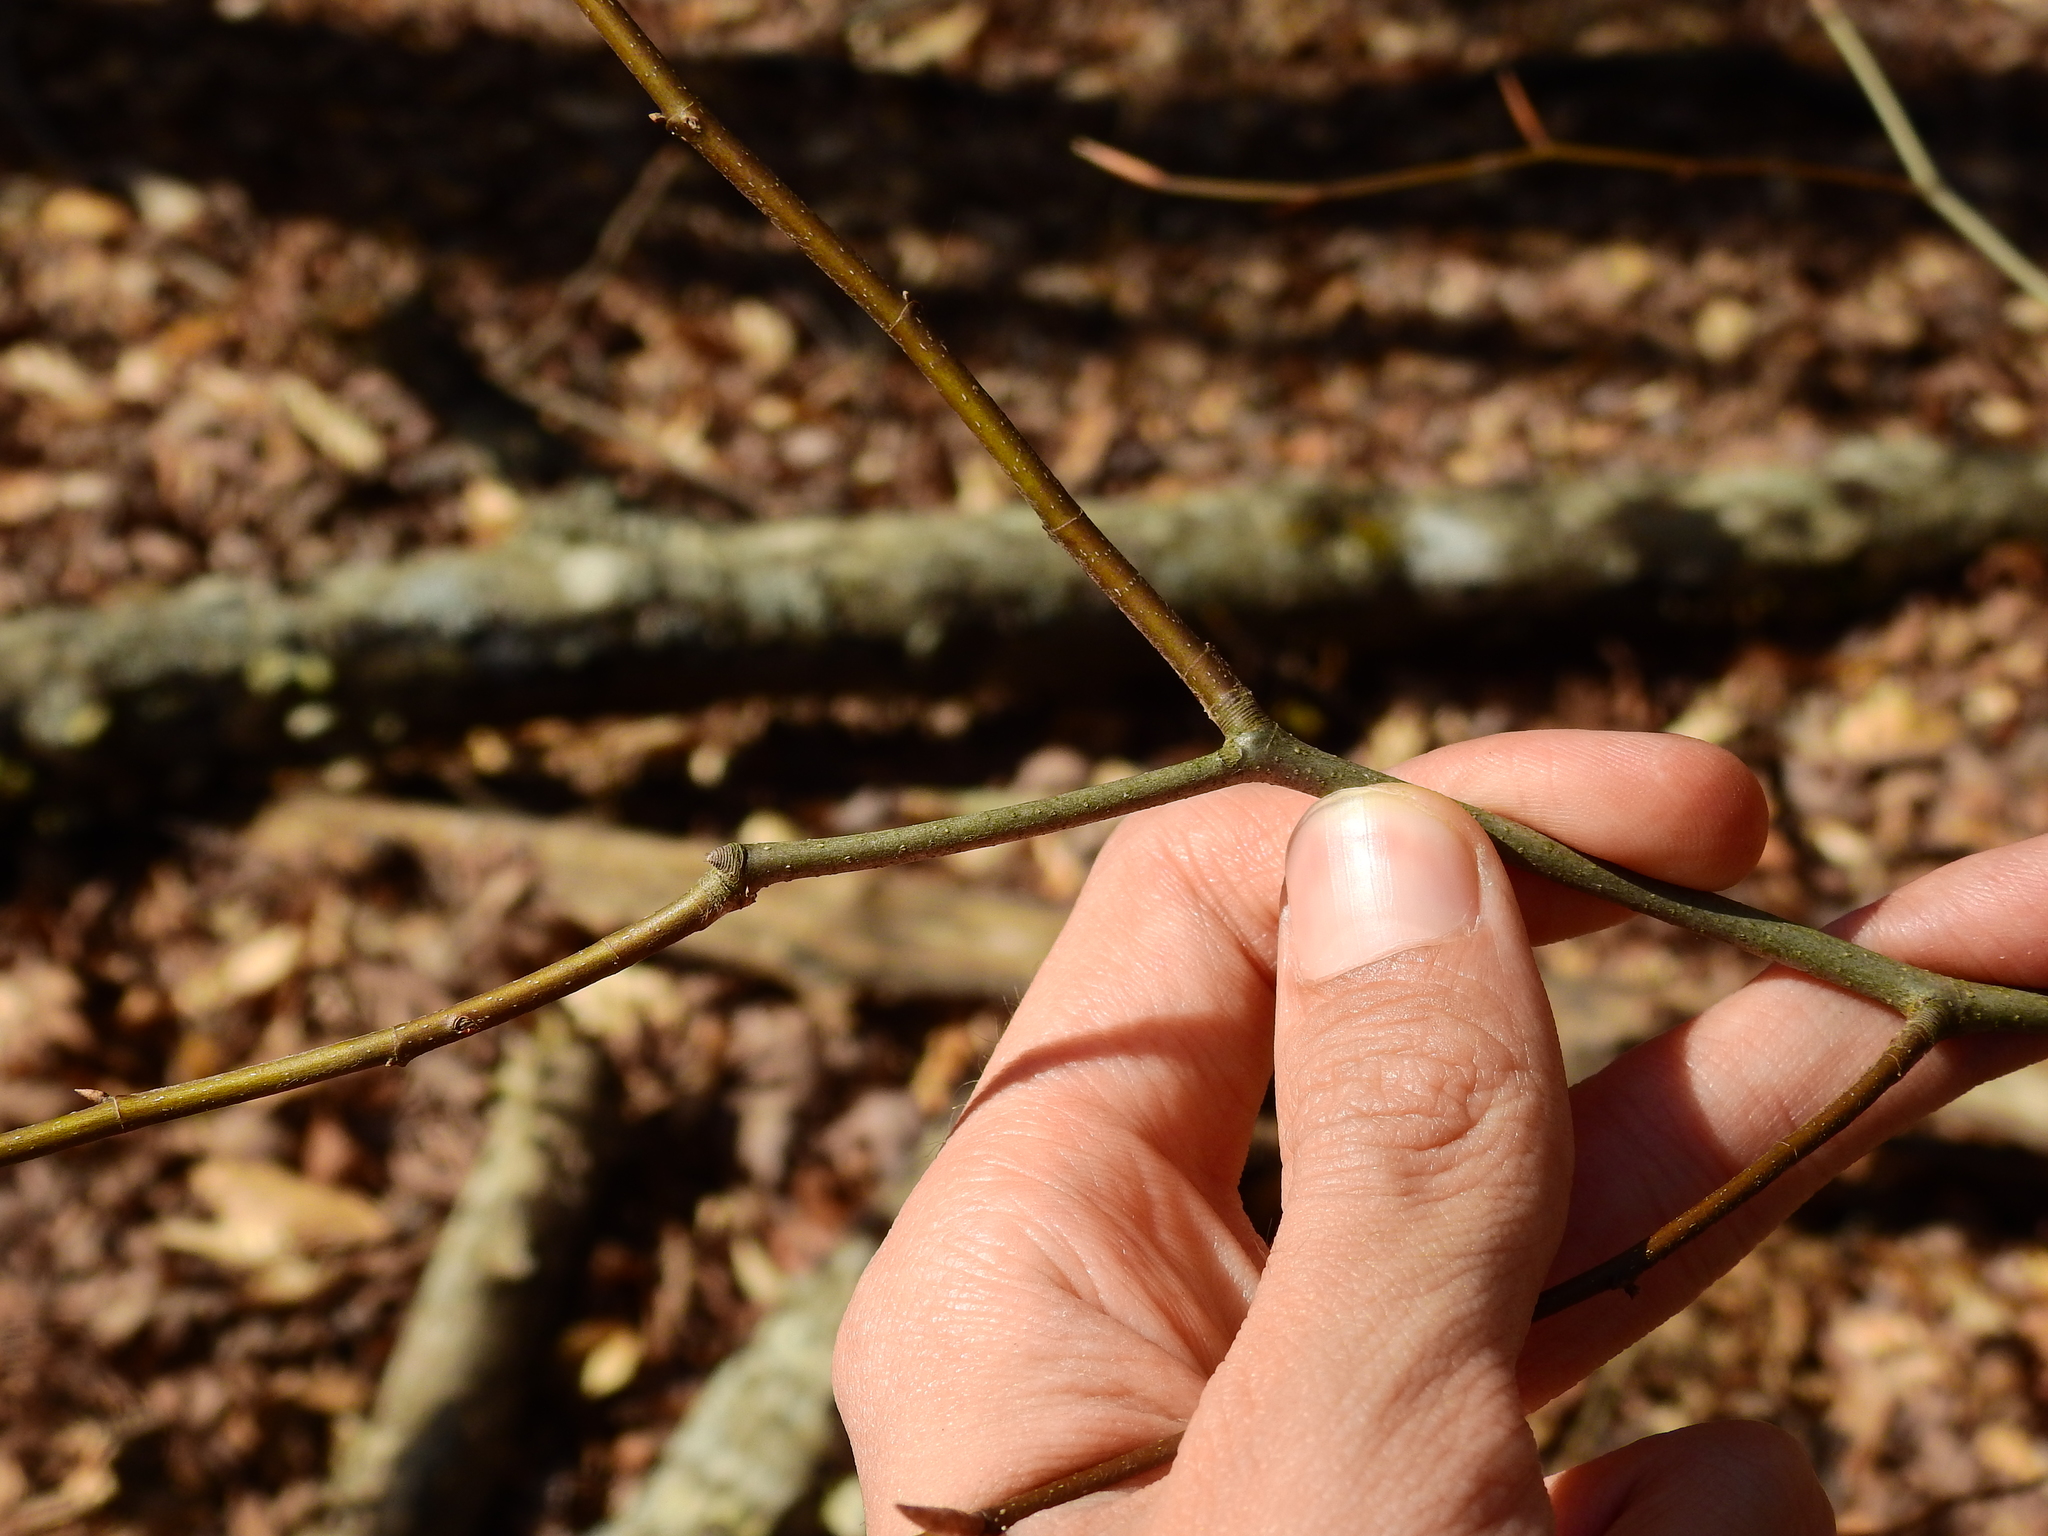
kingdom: Plantae
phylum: Tracheophyta
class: Magnoliopsida
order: Fagales
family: Fagaceae
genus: Fagus
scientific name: Fagus grandifolia
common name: American beech
